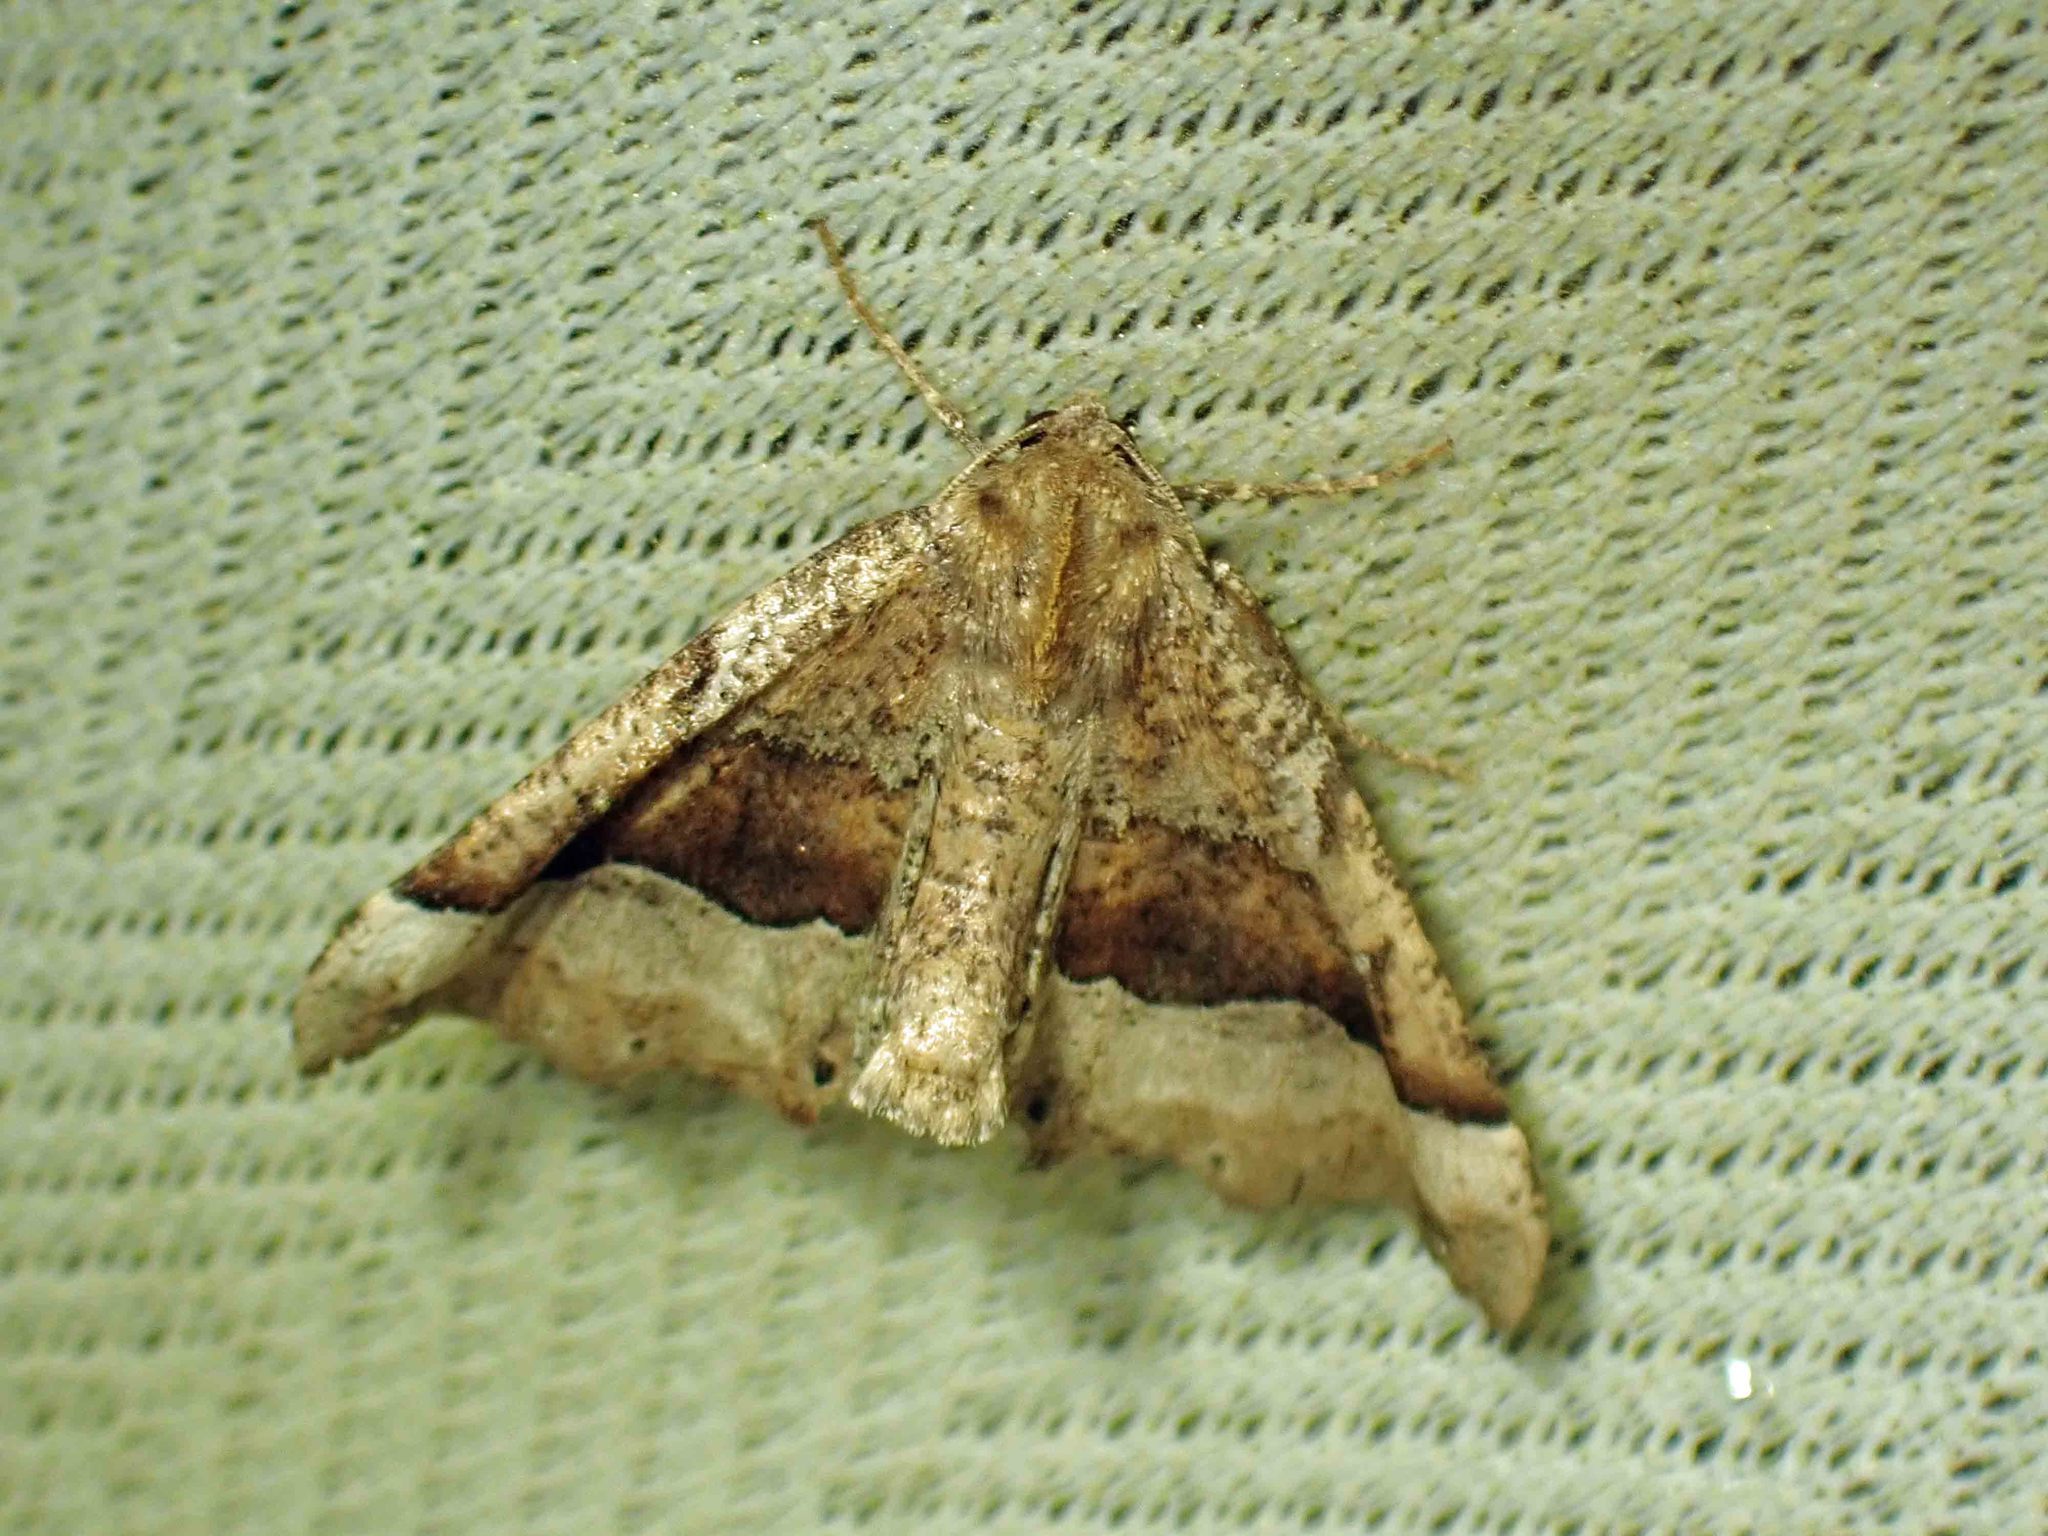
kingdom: Animalia
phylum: Arthropoda
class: Insecta
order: Lepidoptera
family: Geometridae
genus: Pero
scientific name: Pero morrisonaria
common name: Morrison's pero
